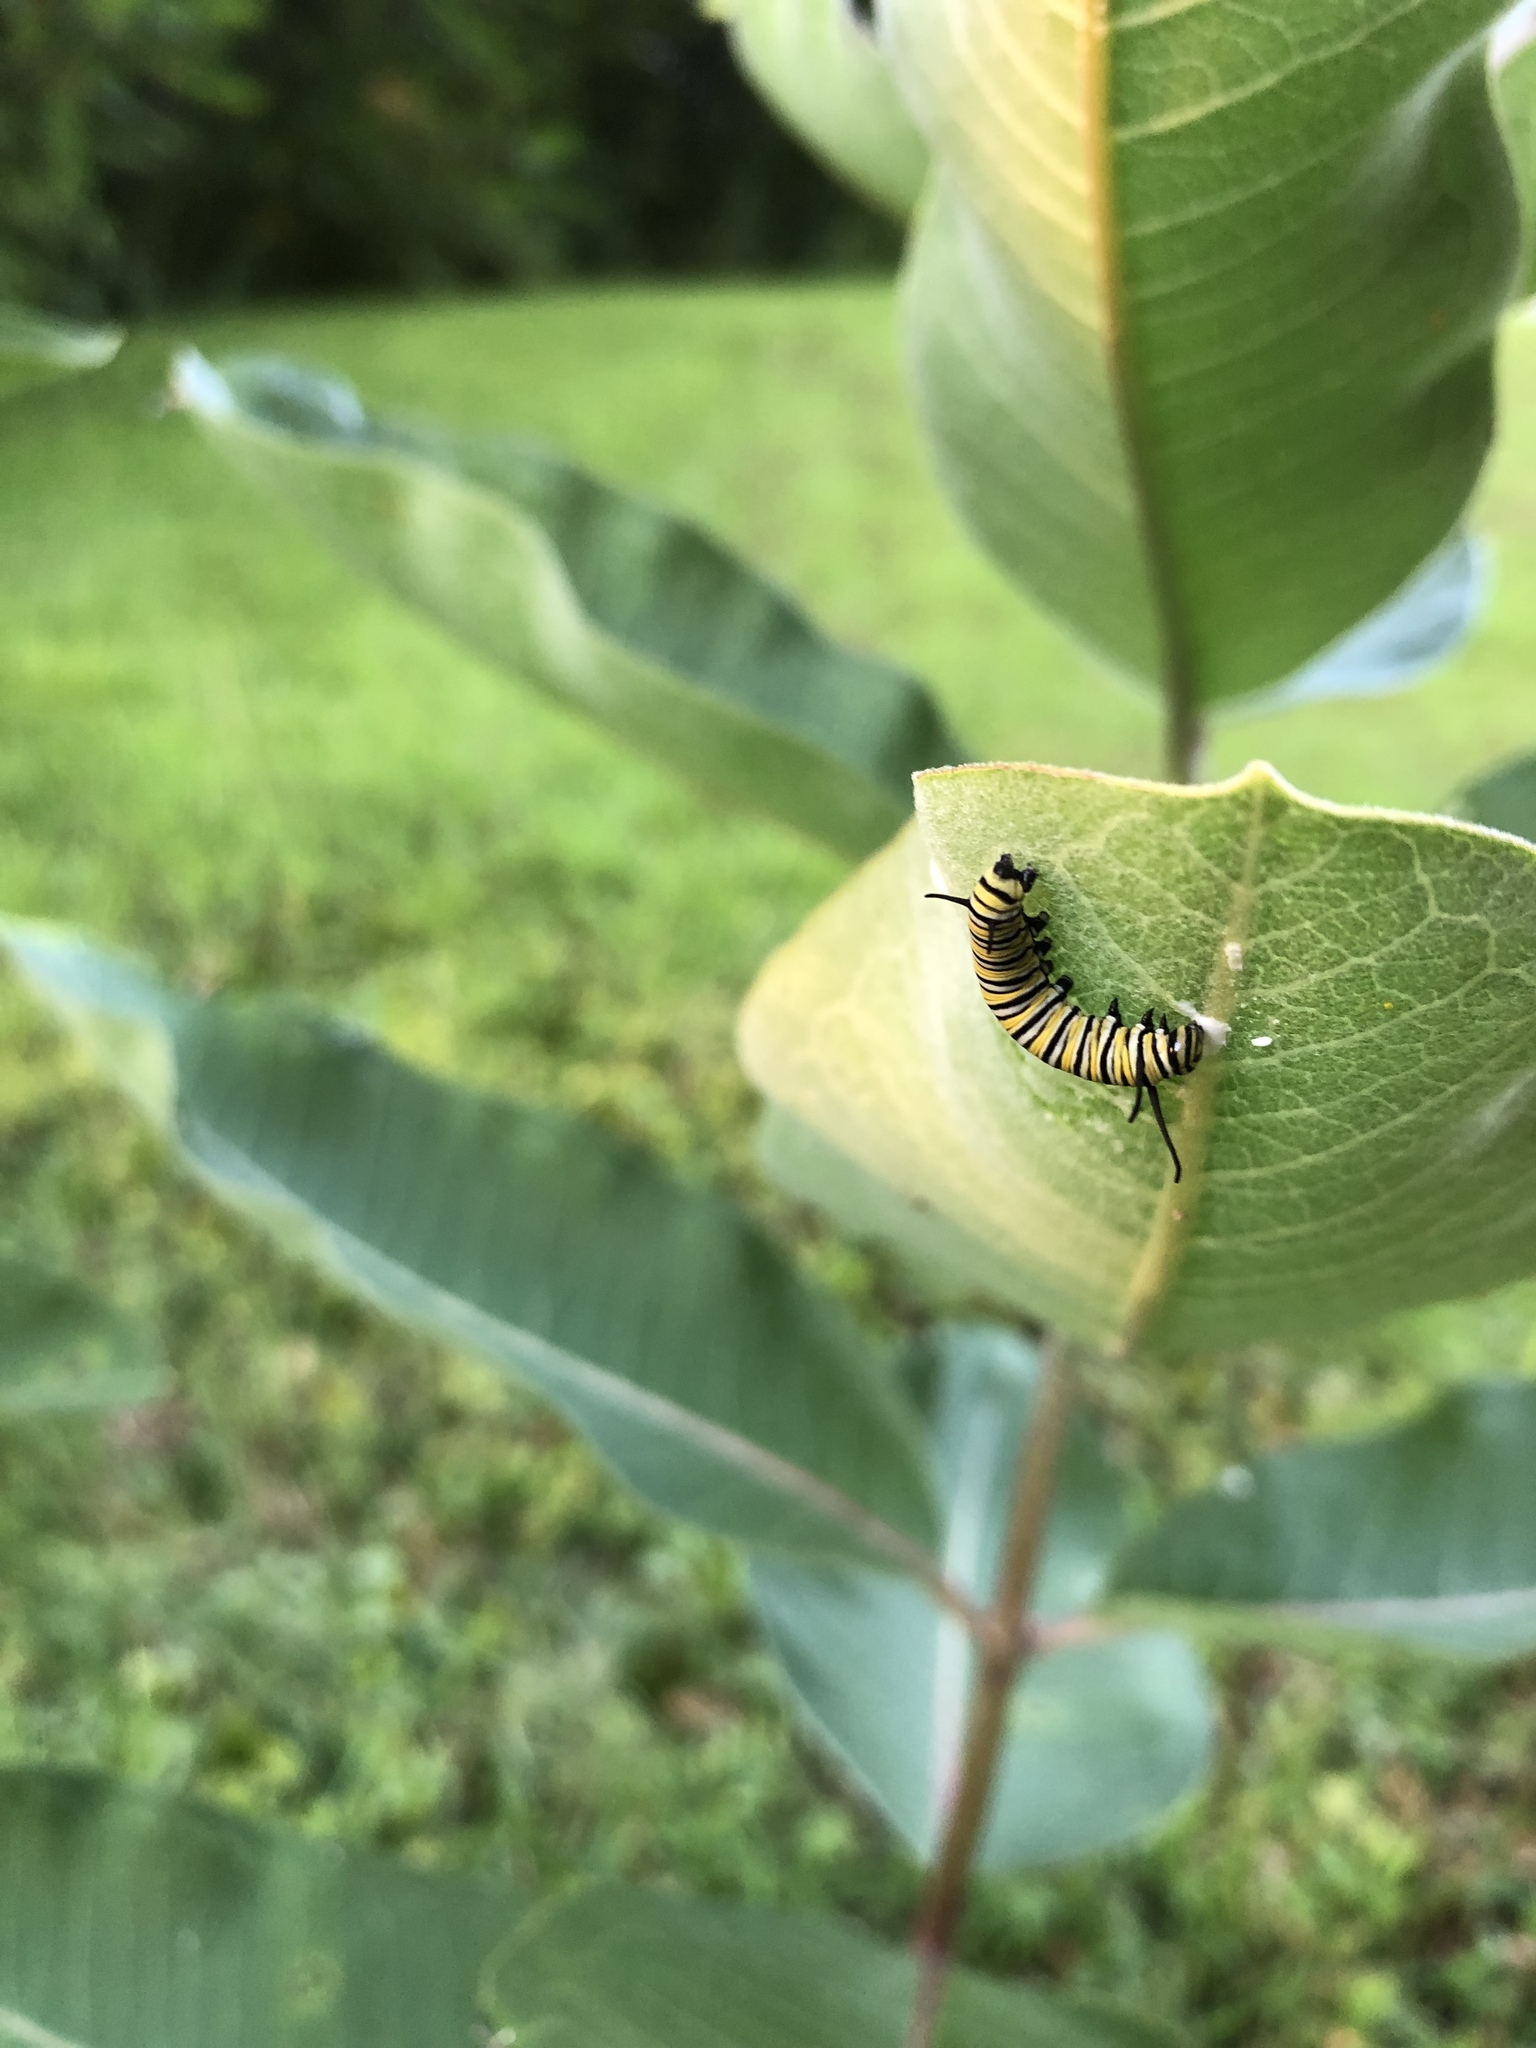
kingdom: Plantae
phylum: Tracheophyta
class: Magnoliopsida
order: Gentianales
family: Apocynaceae
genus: Asclepias
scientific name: Asclepias syriaca
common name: Common milkweed
